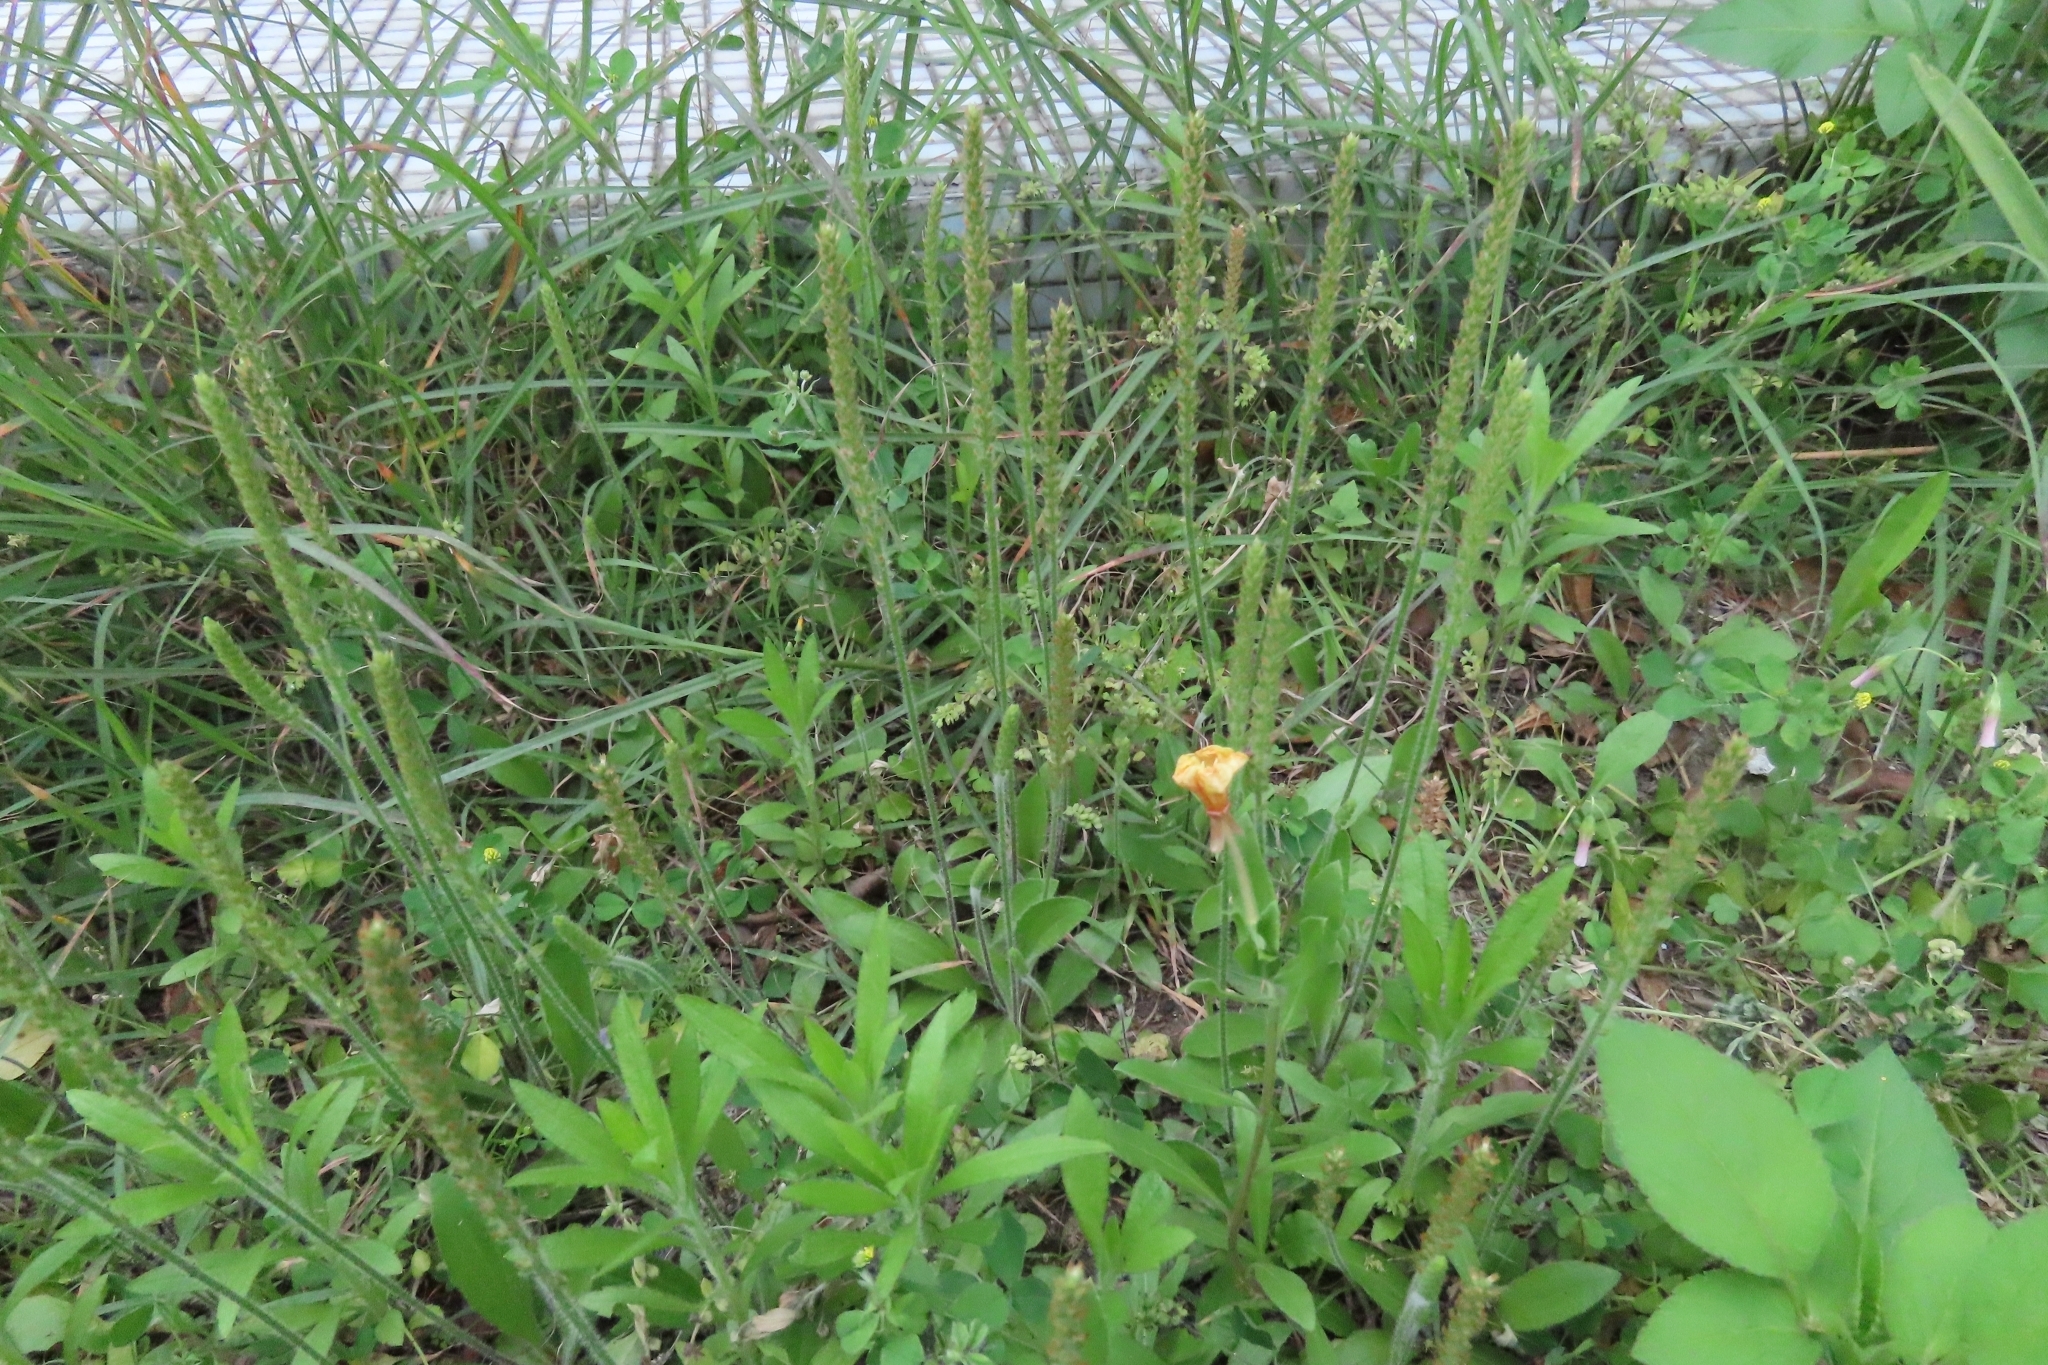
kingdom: Plantae
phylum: Tracheophyta
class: Magnoliopsida
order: Lamiales
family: Plantaginaceae
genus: Plantago
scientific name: Plantago virginica
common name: Hoary plantain
